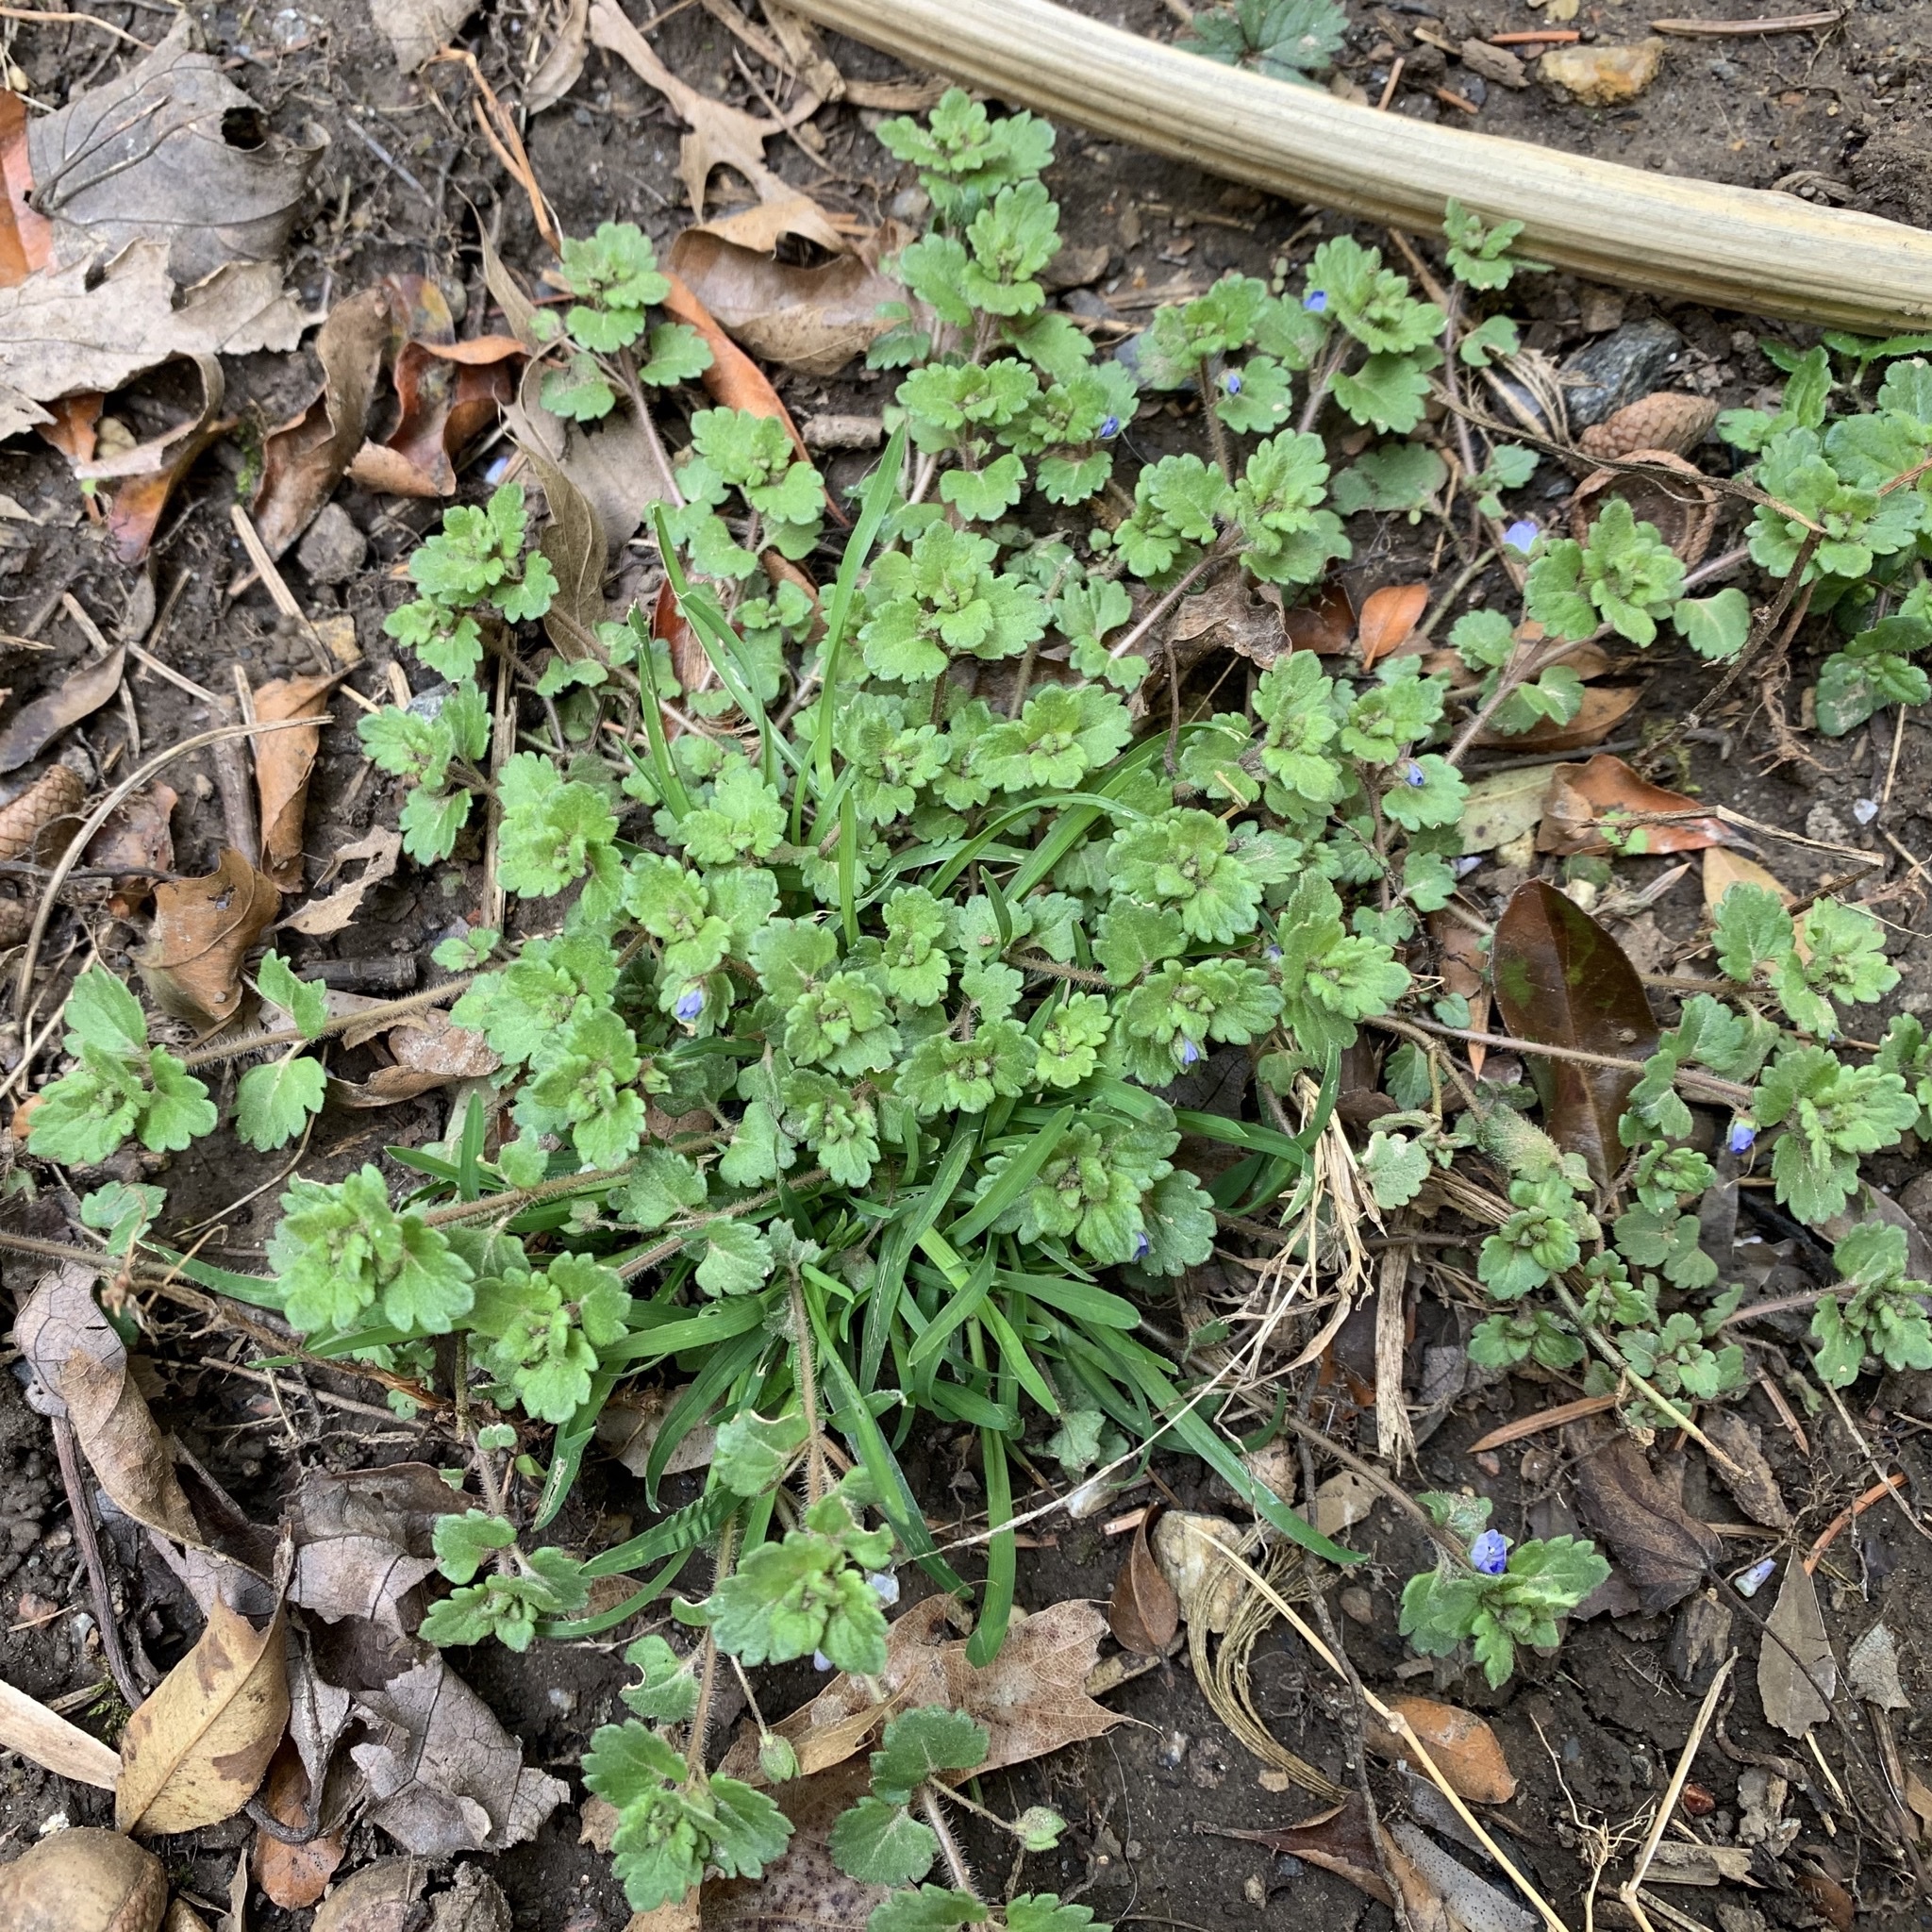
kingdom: Plantae
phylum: Tracheophyta
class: Magnoliopsida
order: Lamiales
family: Plantaginaceae
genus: Veronica
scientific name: Veronica persica
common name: Common field-speedwell
